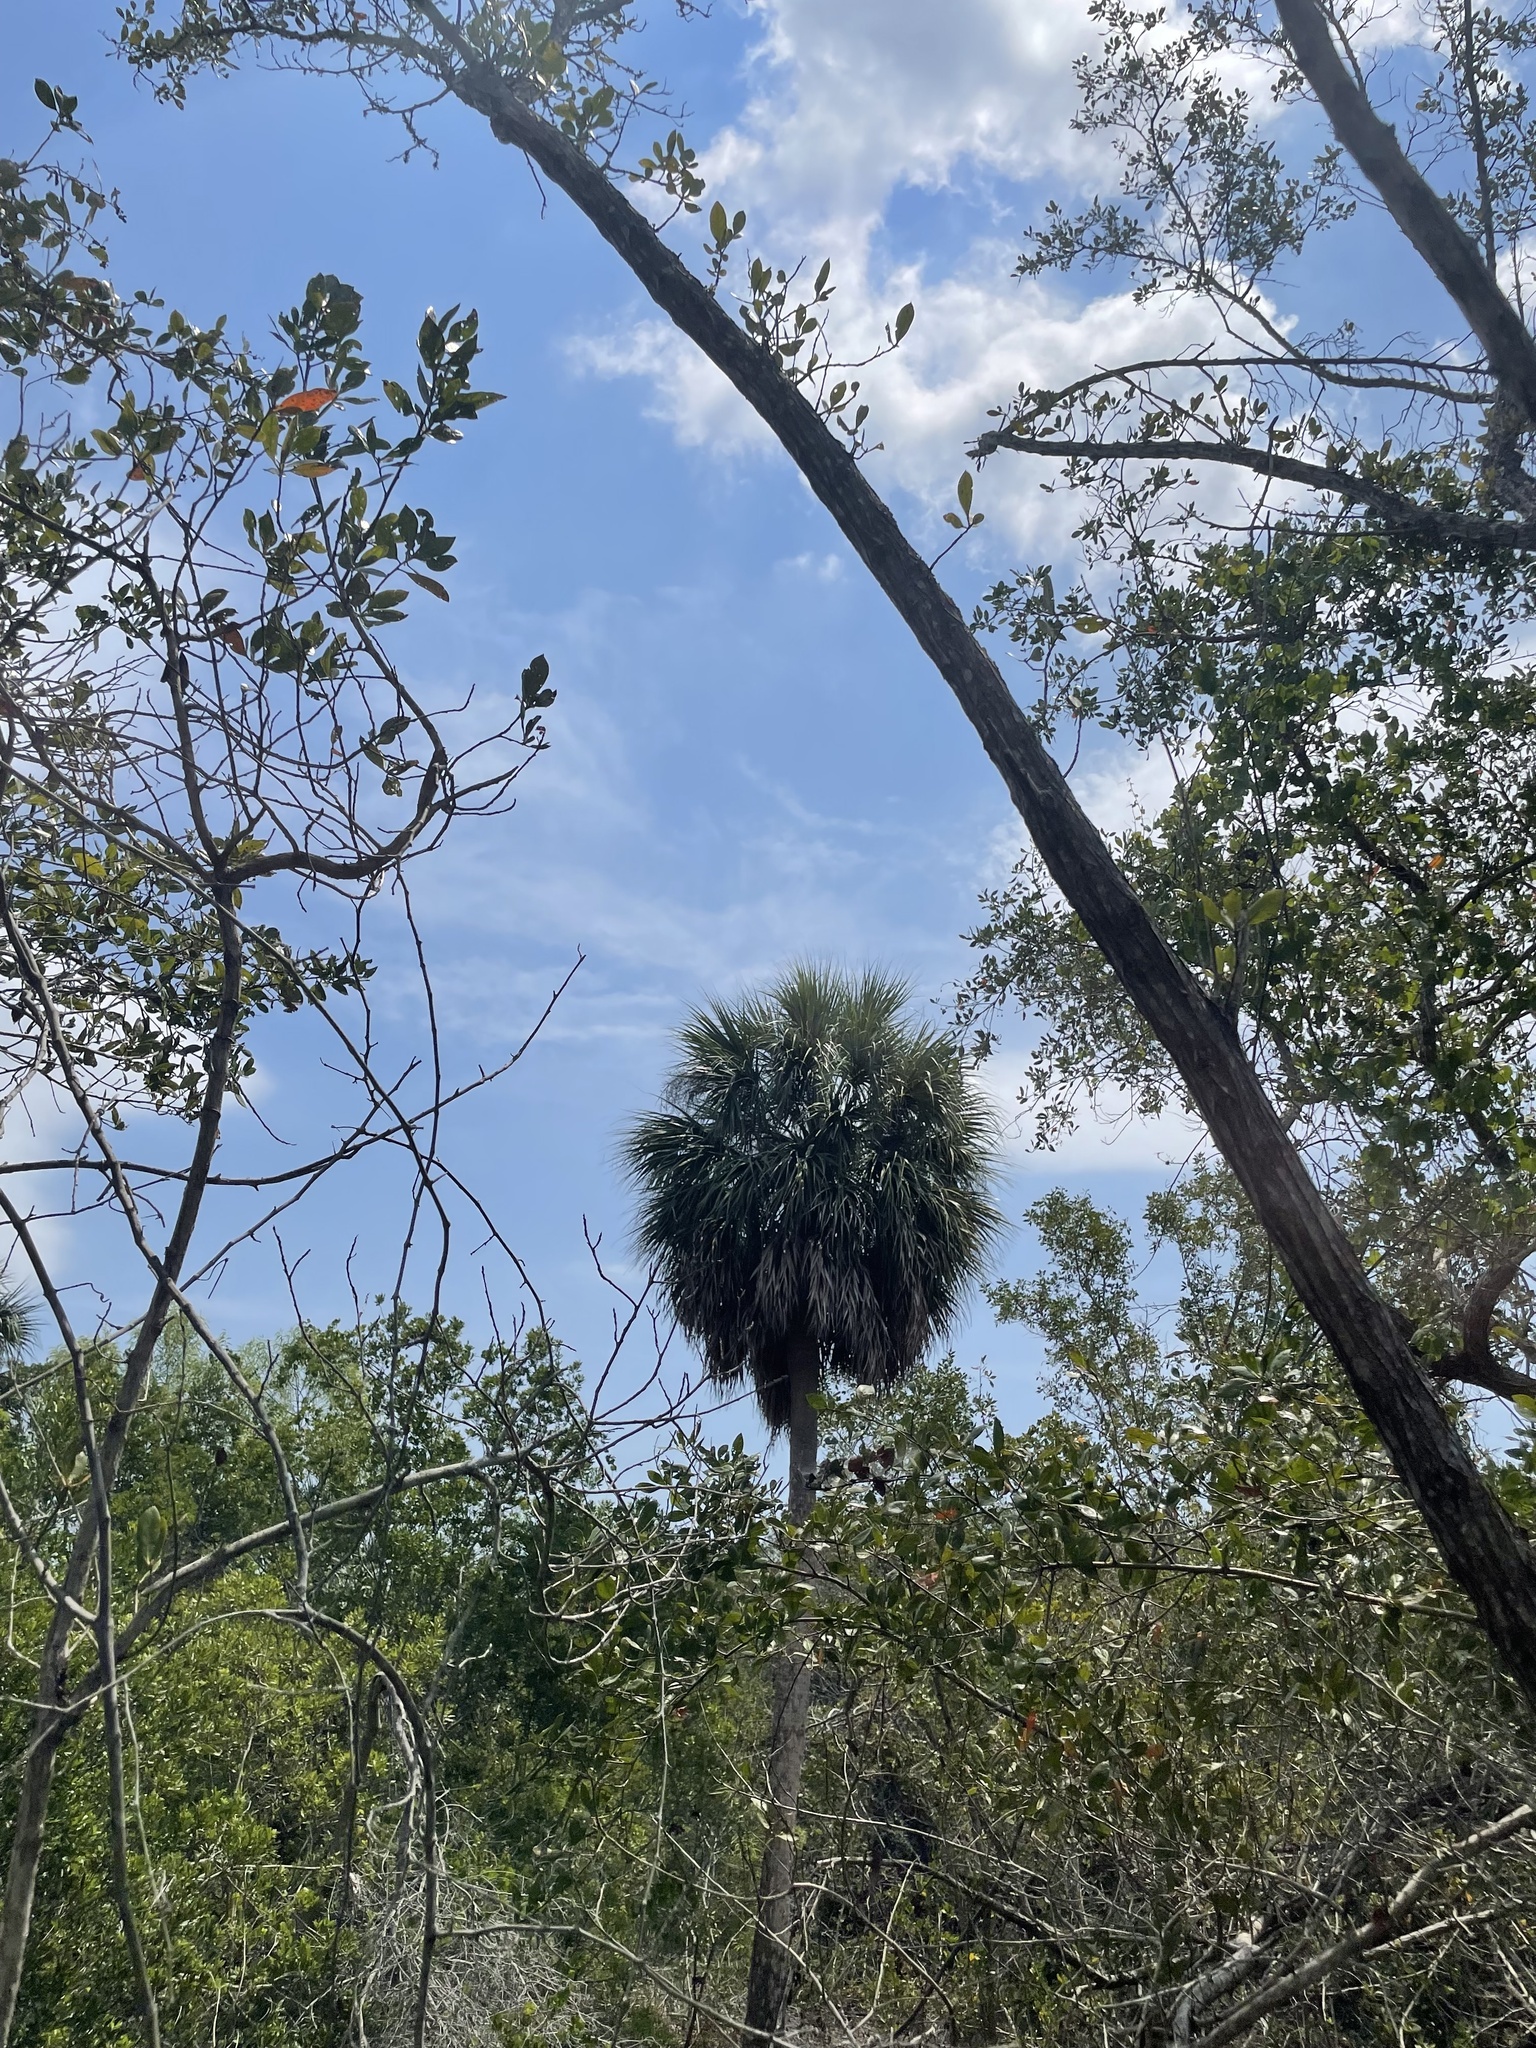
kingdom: Plantae
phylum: Tracheophyta
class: Liliopsida
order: Arecales
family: Arecaceae
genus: Sabal
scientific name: Sabal palmetto
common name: Blue palmetto
